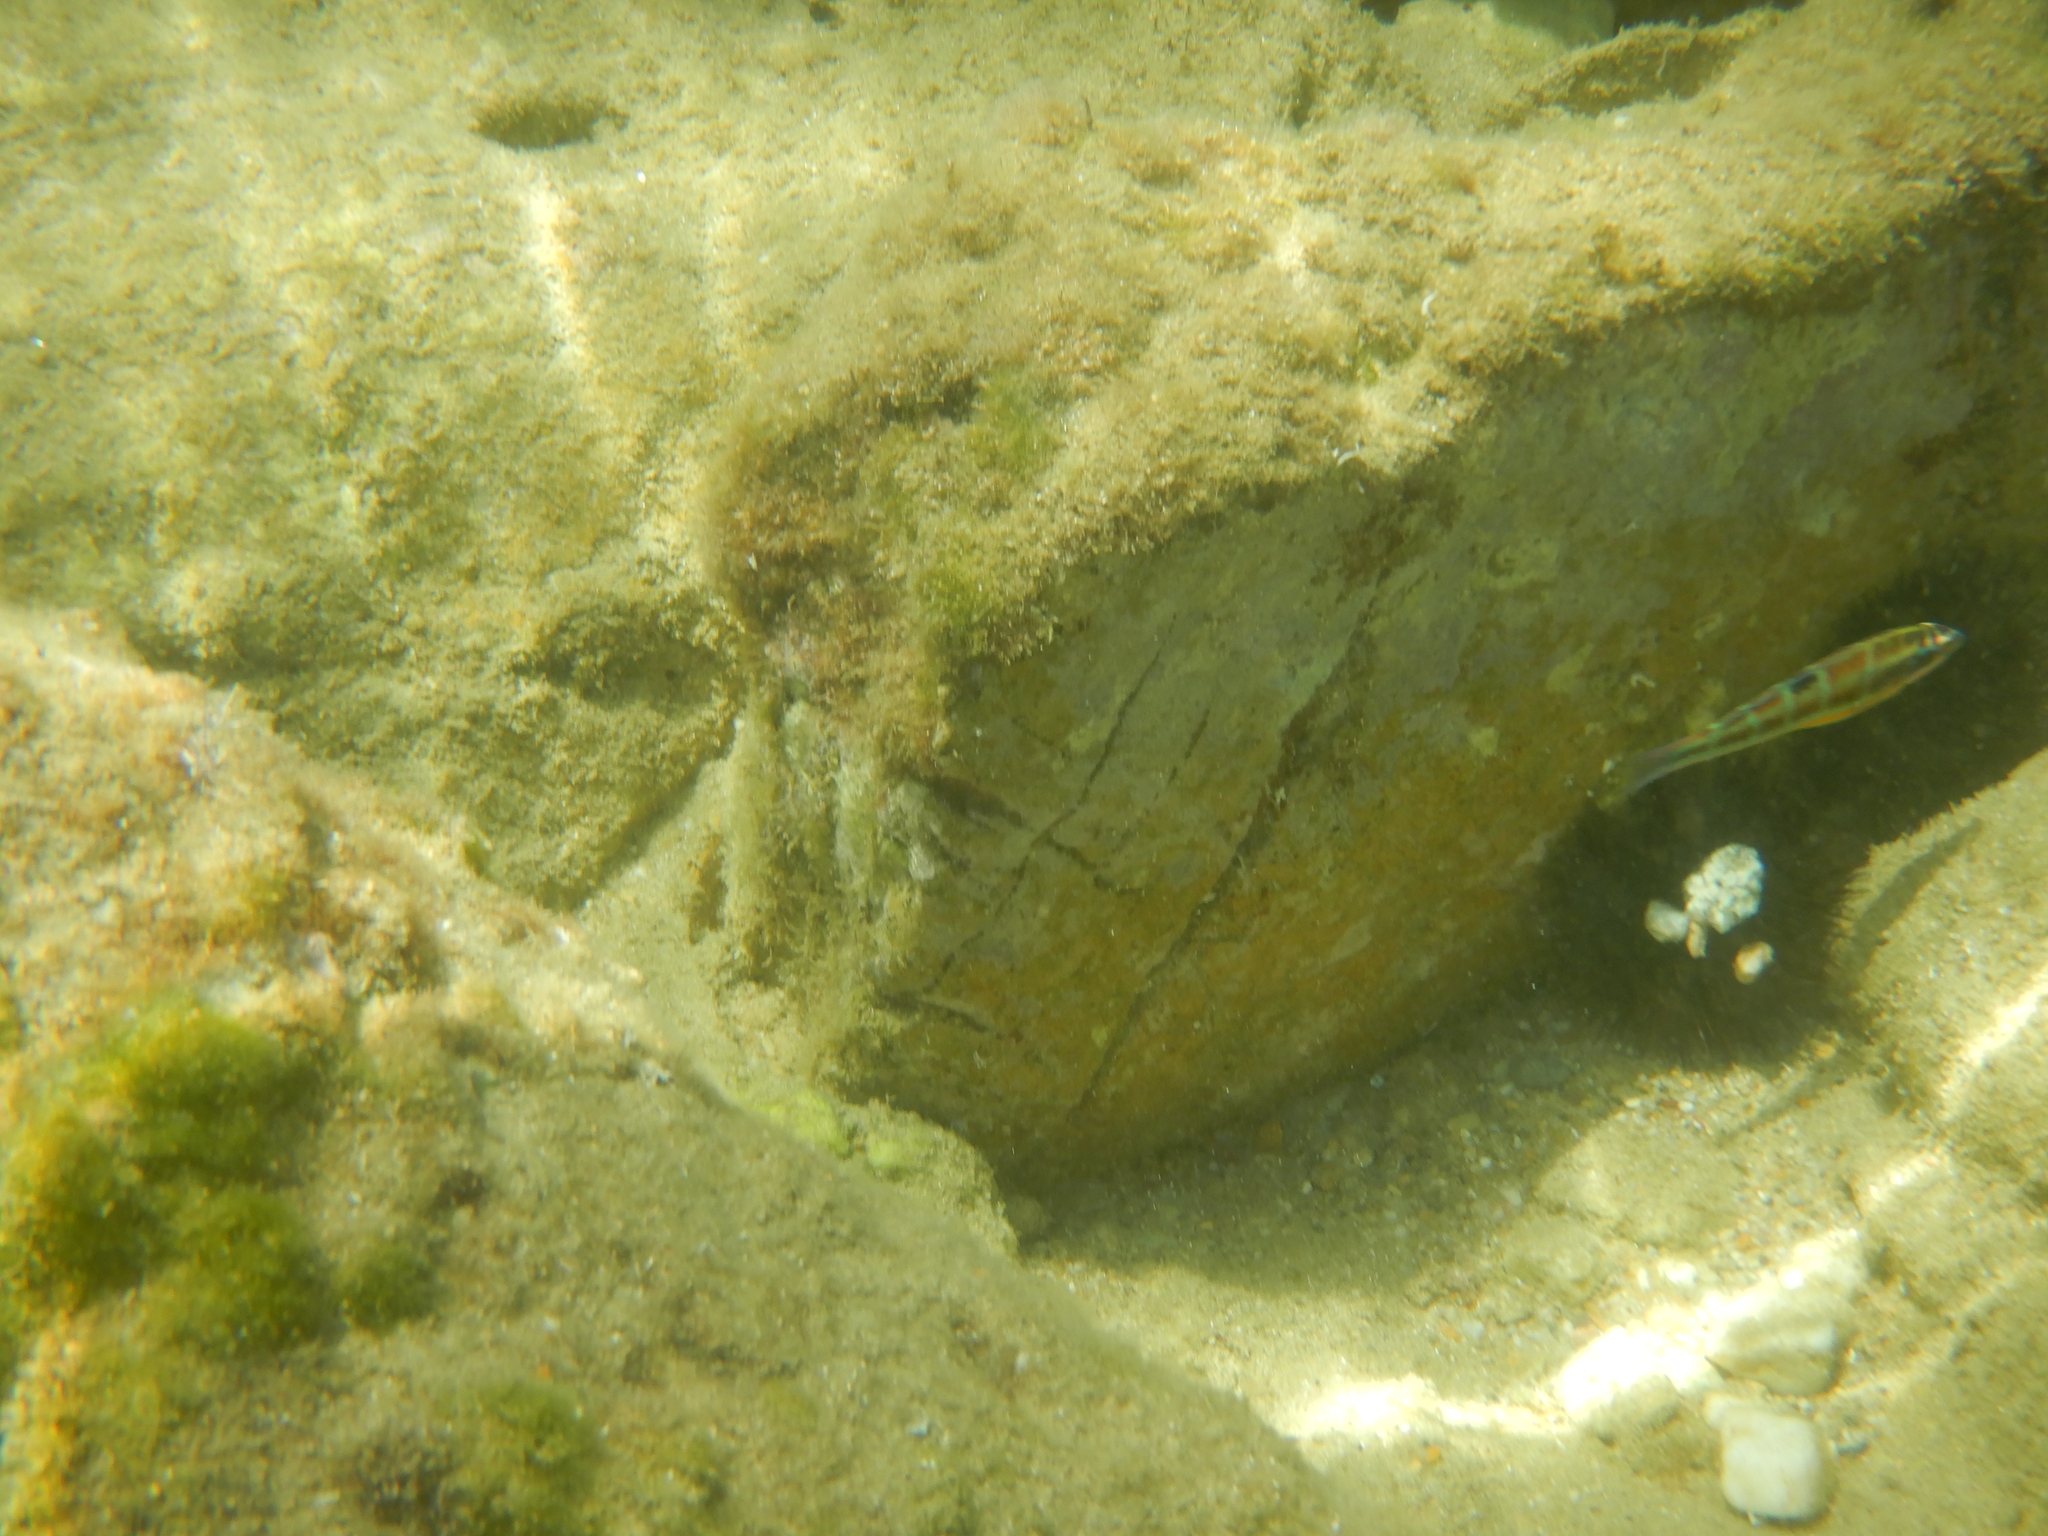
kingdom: Animalia
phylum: Chordata
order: Perciformes
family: Labridae
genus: Thalassoma
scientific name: Thalassoma pavo
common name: Ornate wrasse
